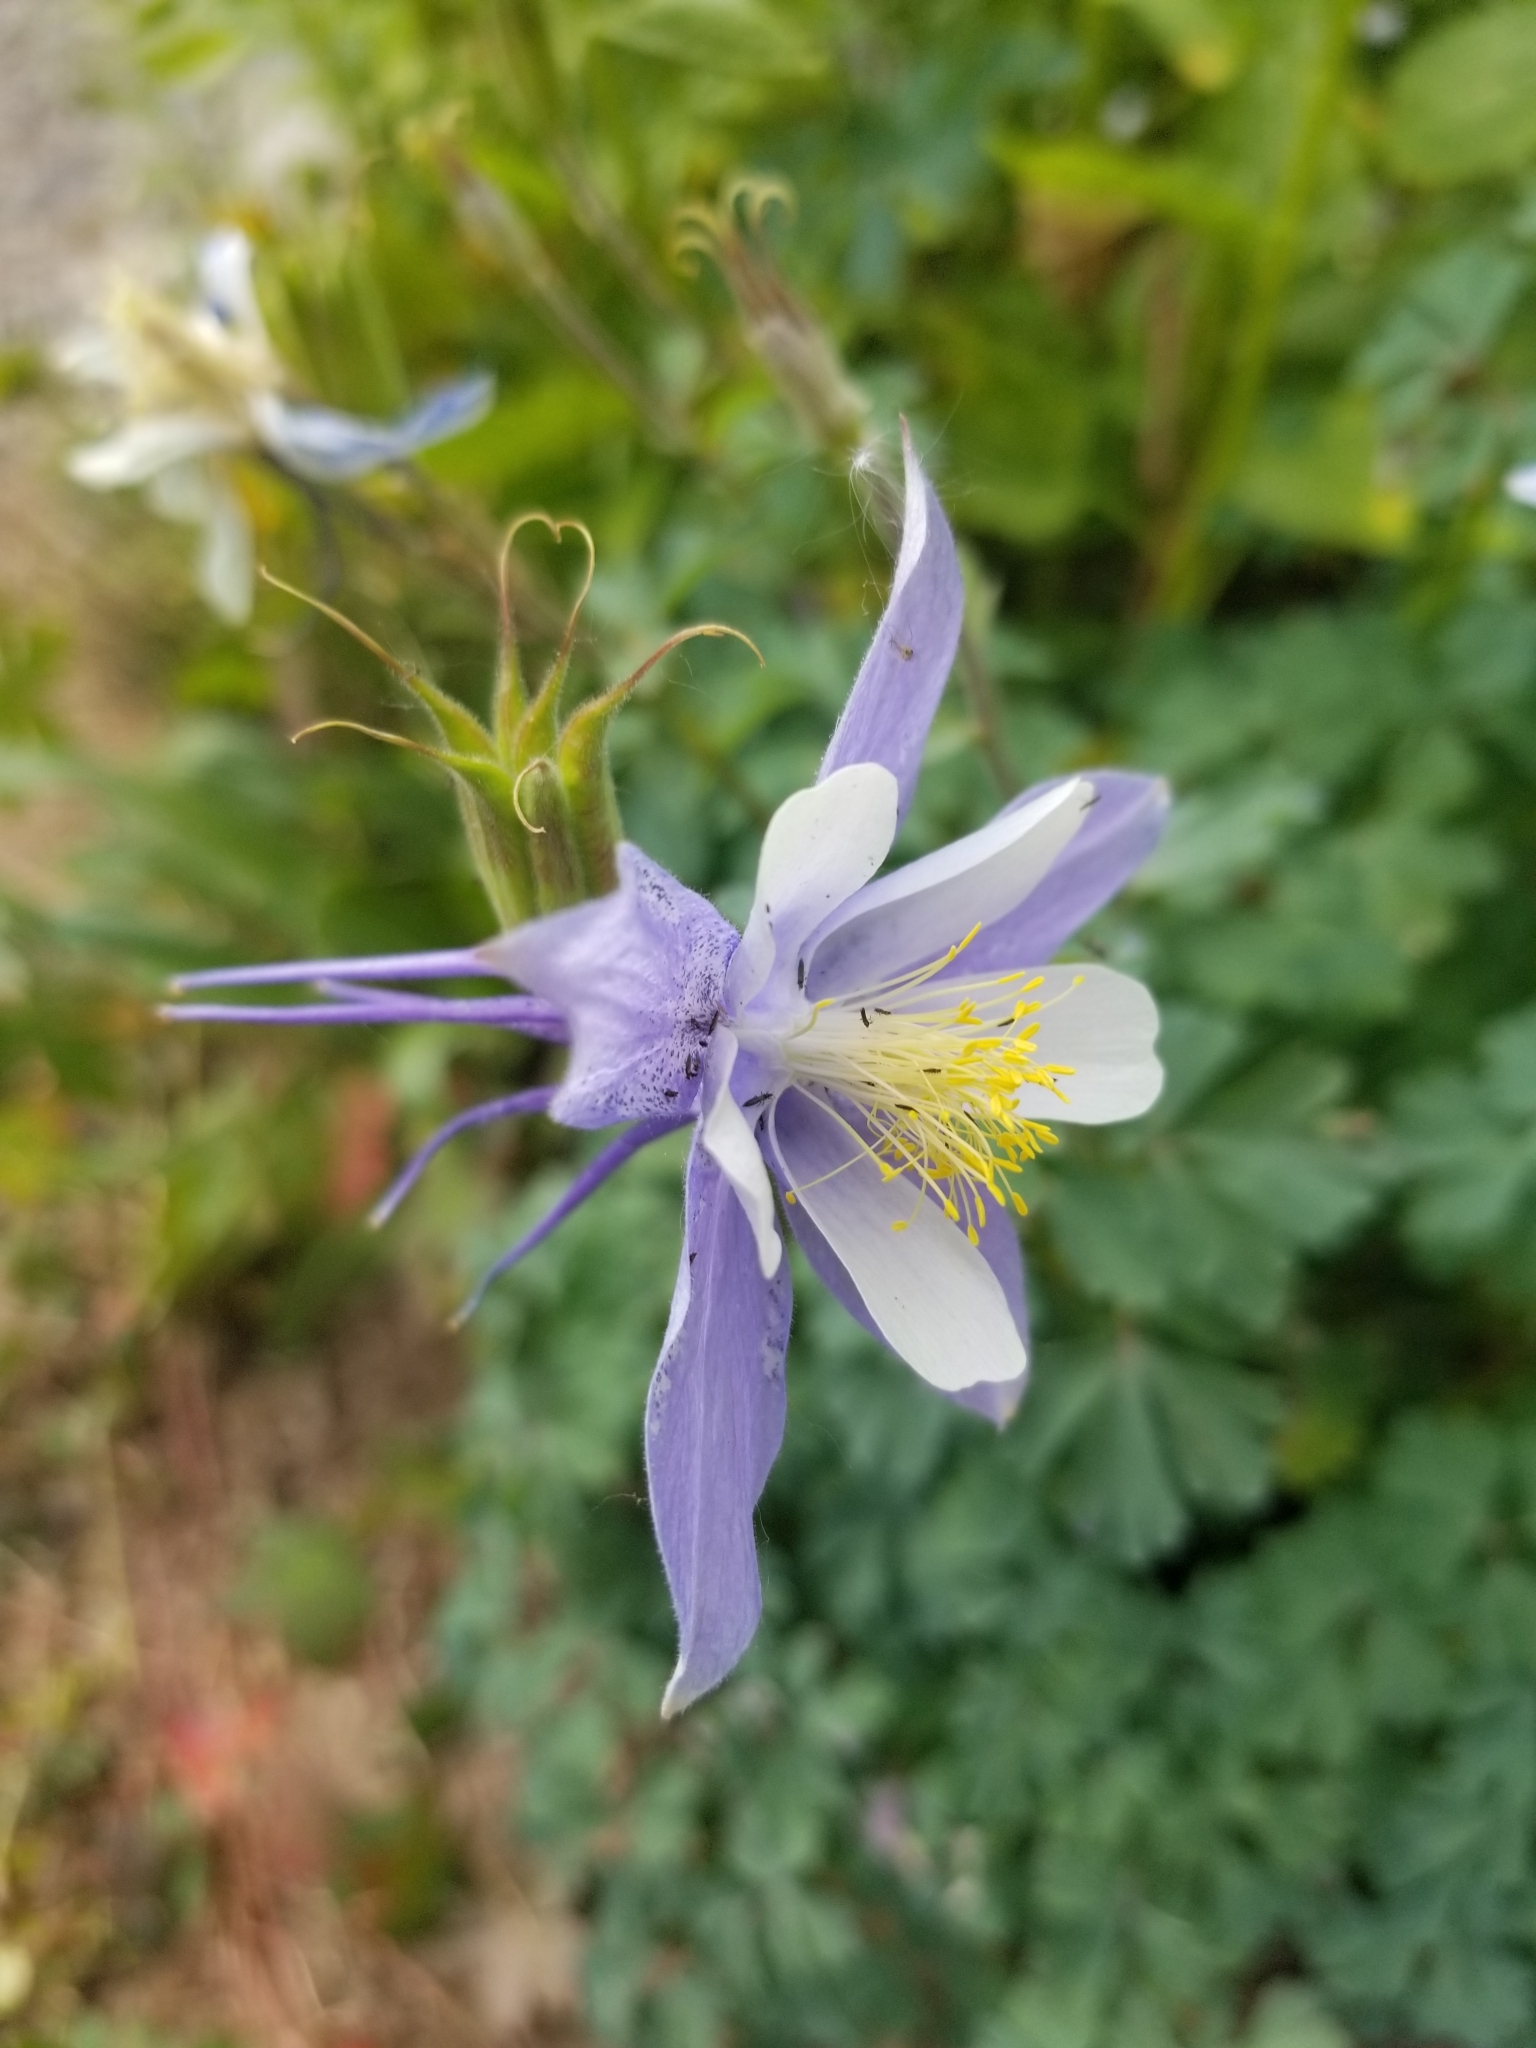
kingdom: Plantae
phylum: Tracheophyta
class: Magnoliopsida
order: Ranunculales
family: Ranunculaceae
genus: Aquilegia
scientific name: Aquilegia coerulea
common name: Rocky mountain columbine
